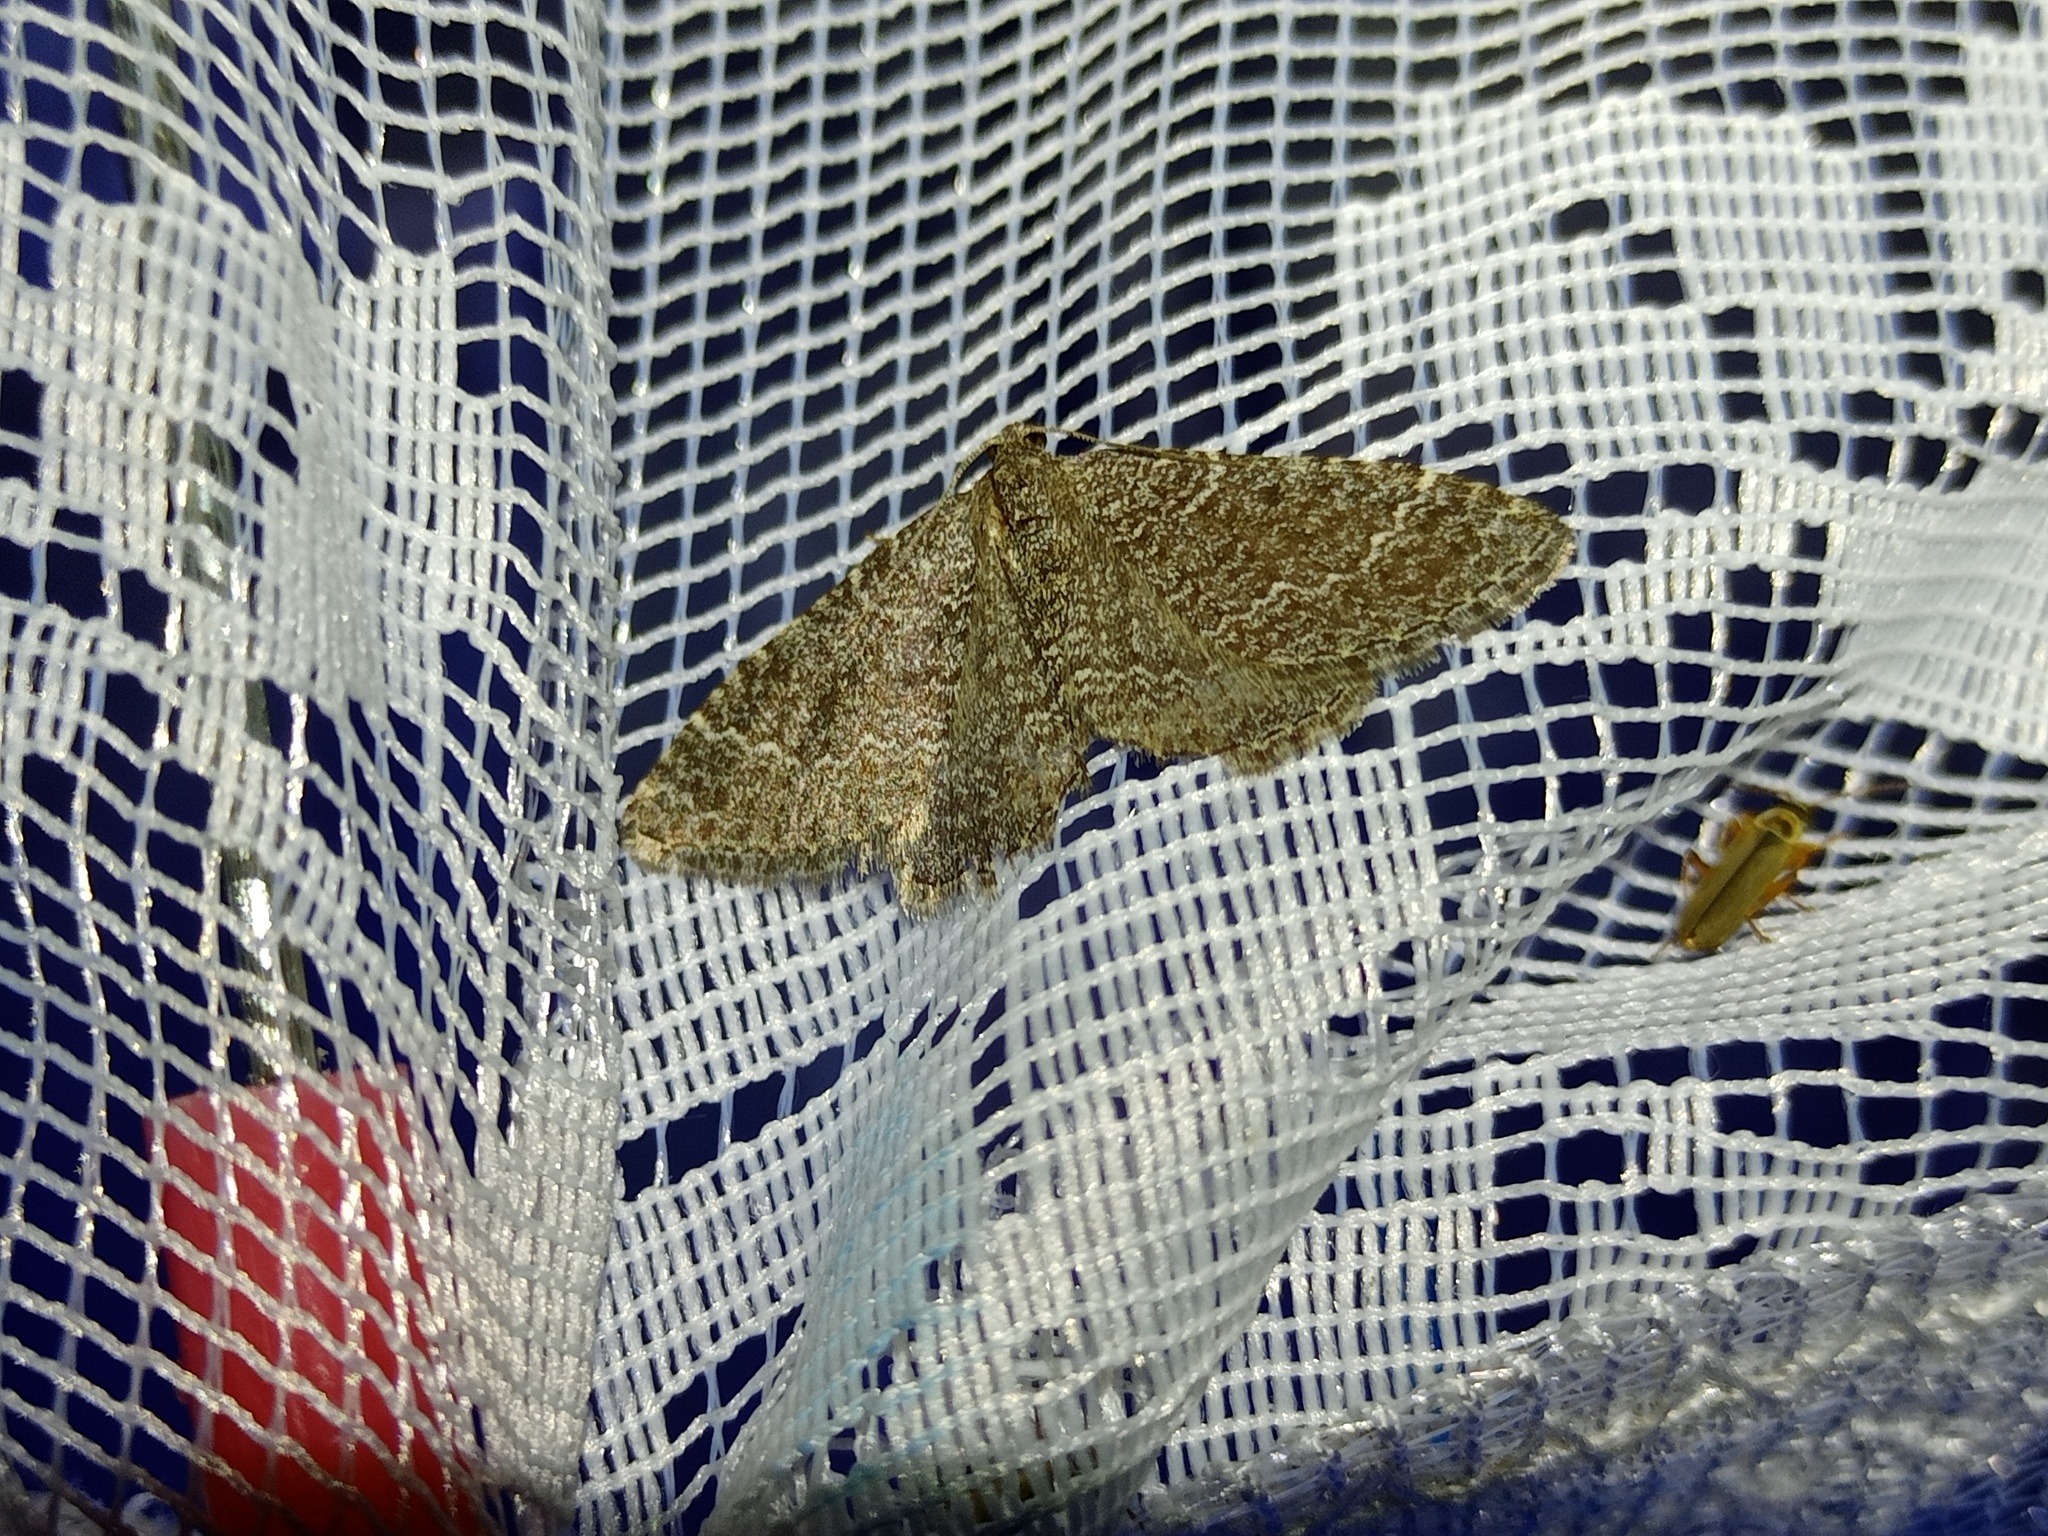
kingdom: Animalia
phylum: Arthropoda
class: Insecta
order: Lepidoptera
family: Geometridae
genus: Cataclysme
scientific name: Cataclysme riguata
